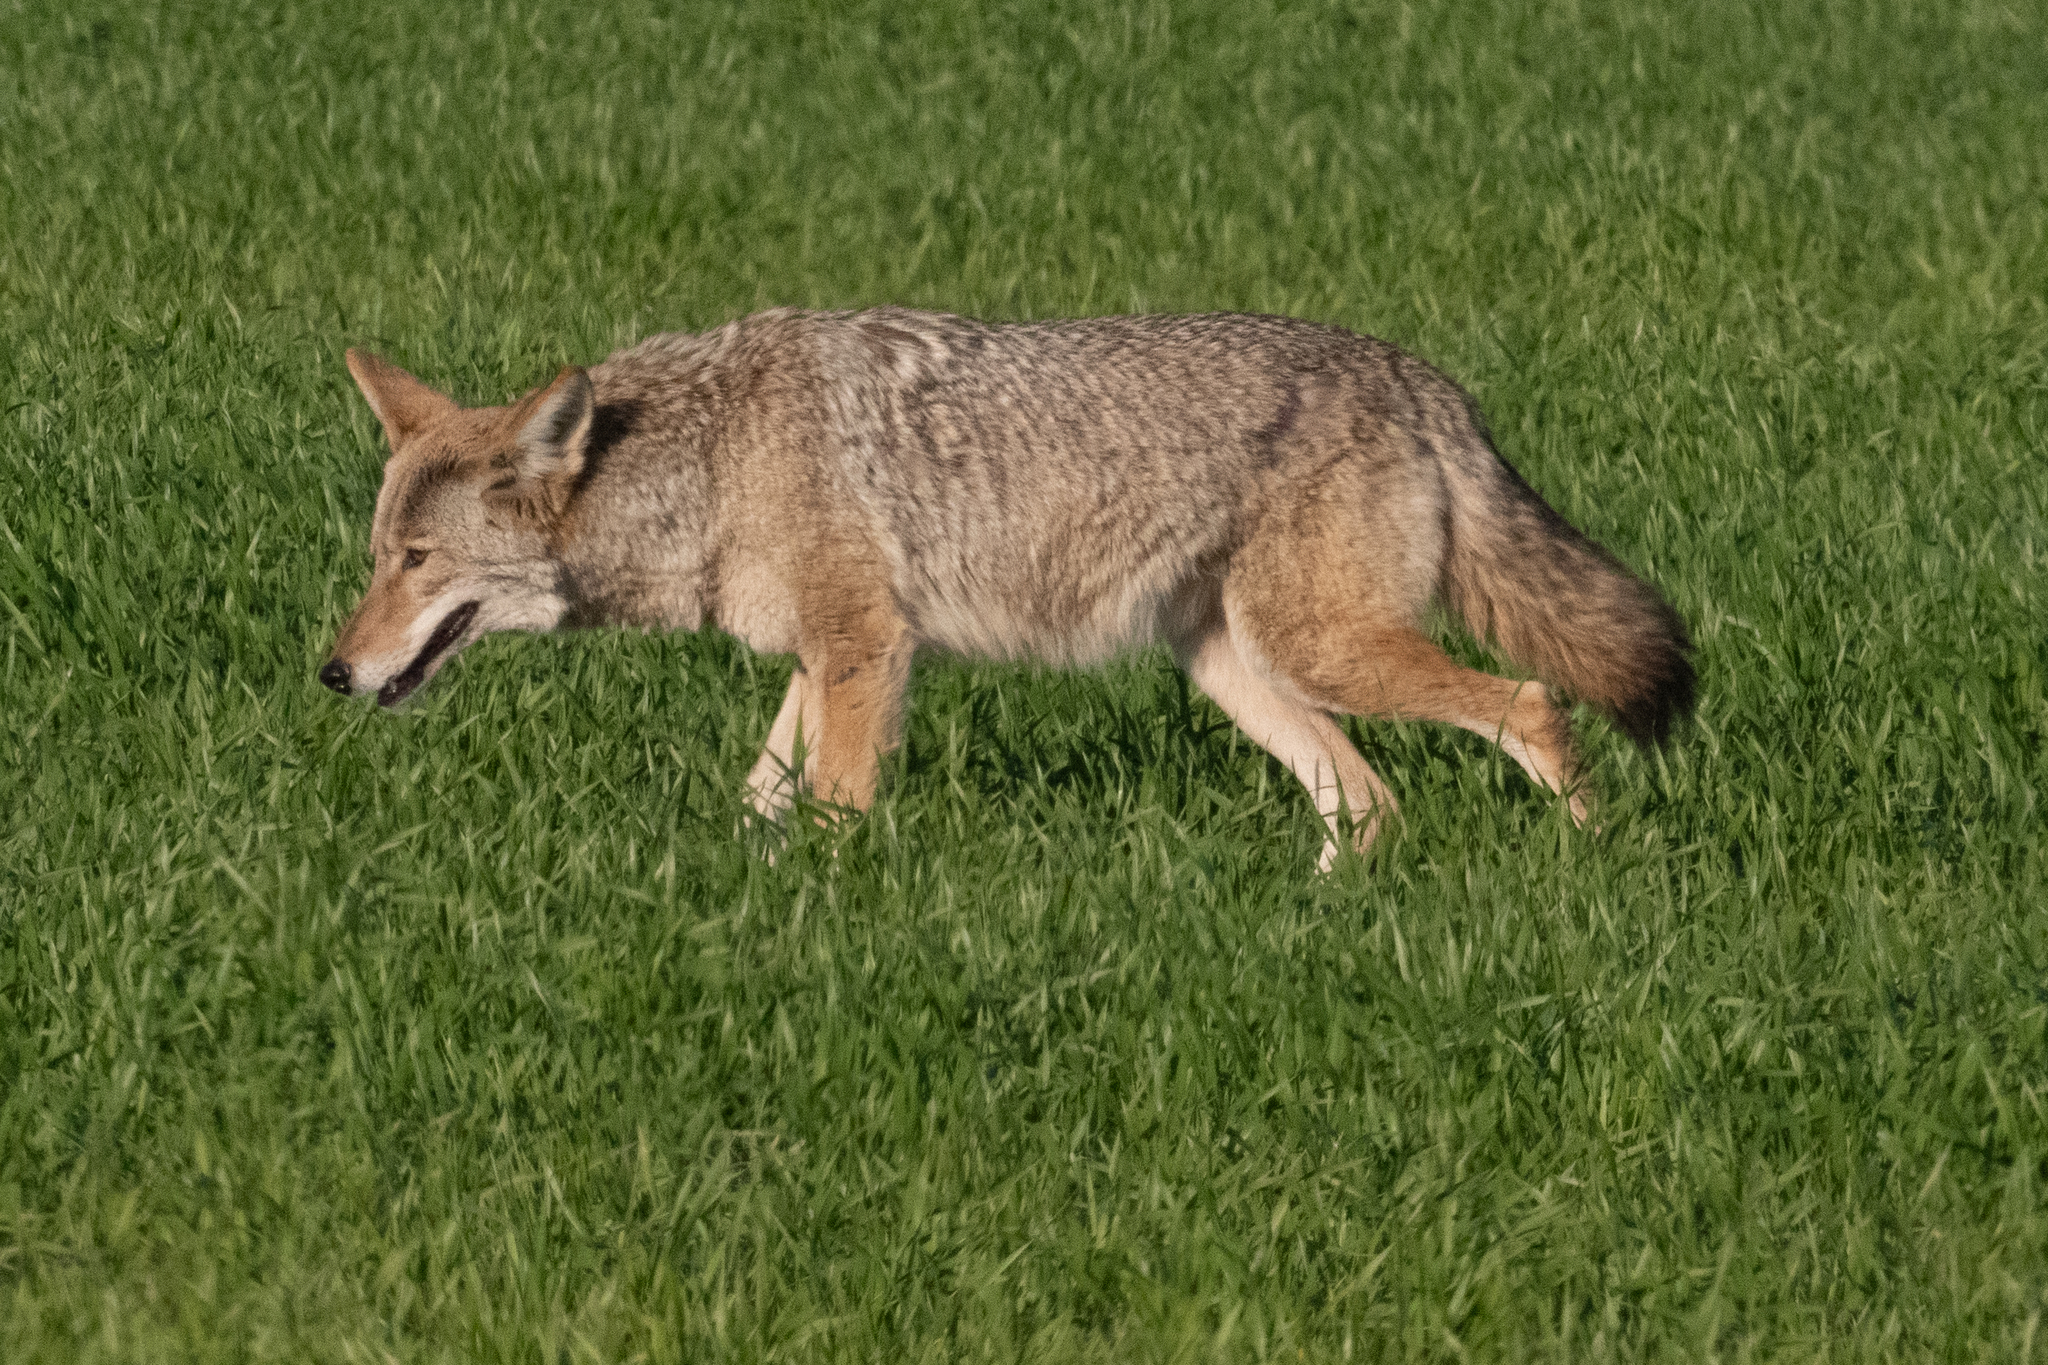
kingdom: Animalia
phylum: Chordata
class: Mammalia
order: Carnivora
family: Canidae
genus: Canis
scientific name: Canis latrans
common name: Coyote
